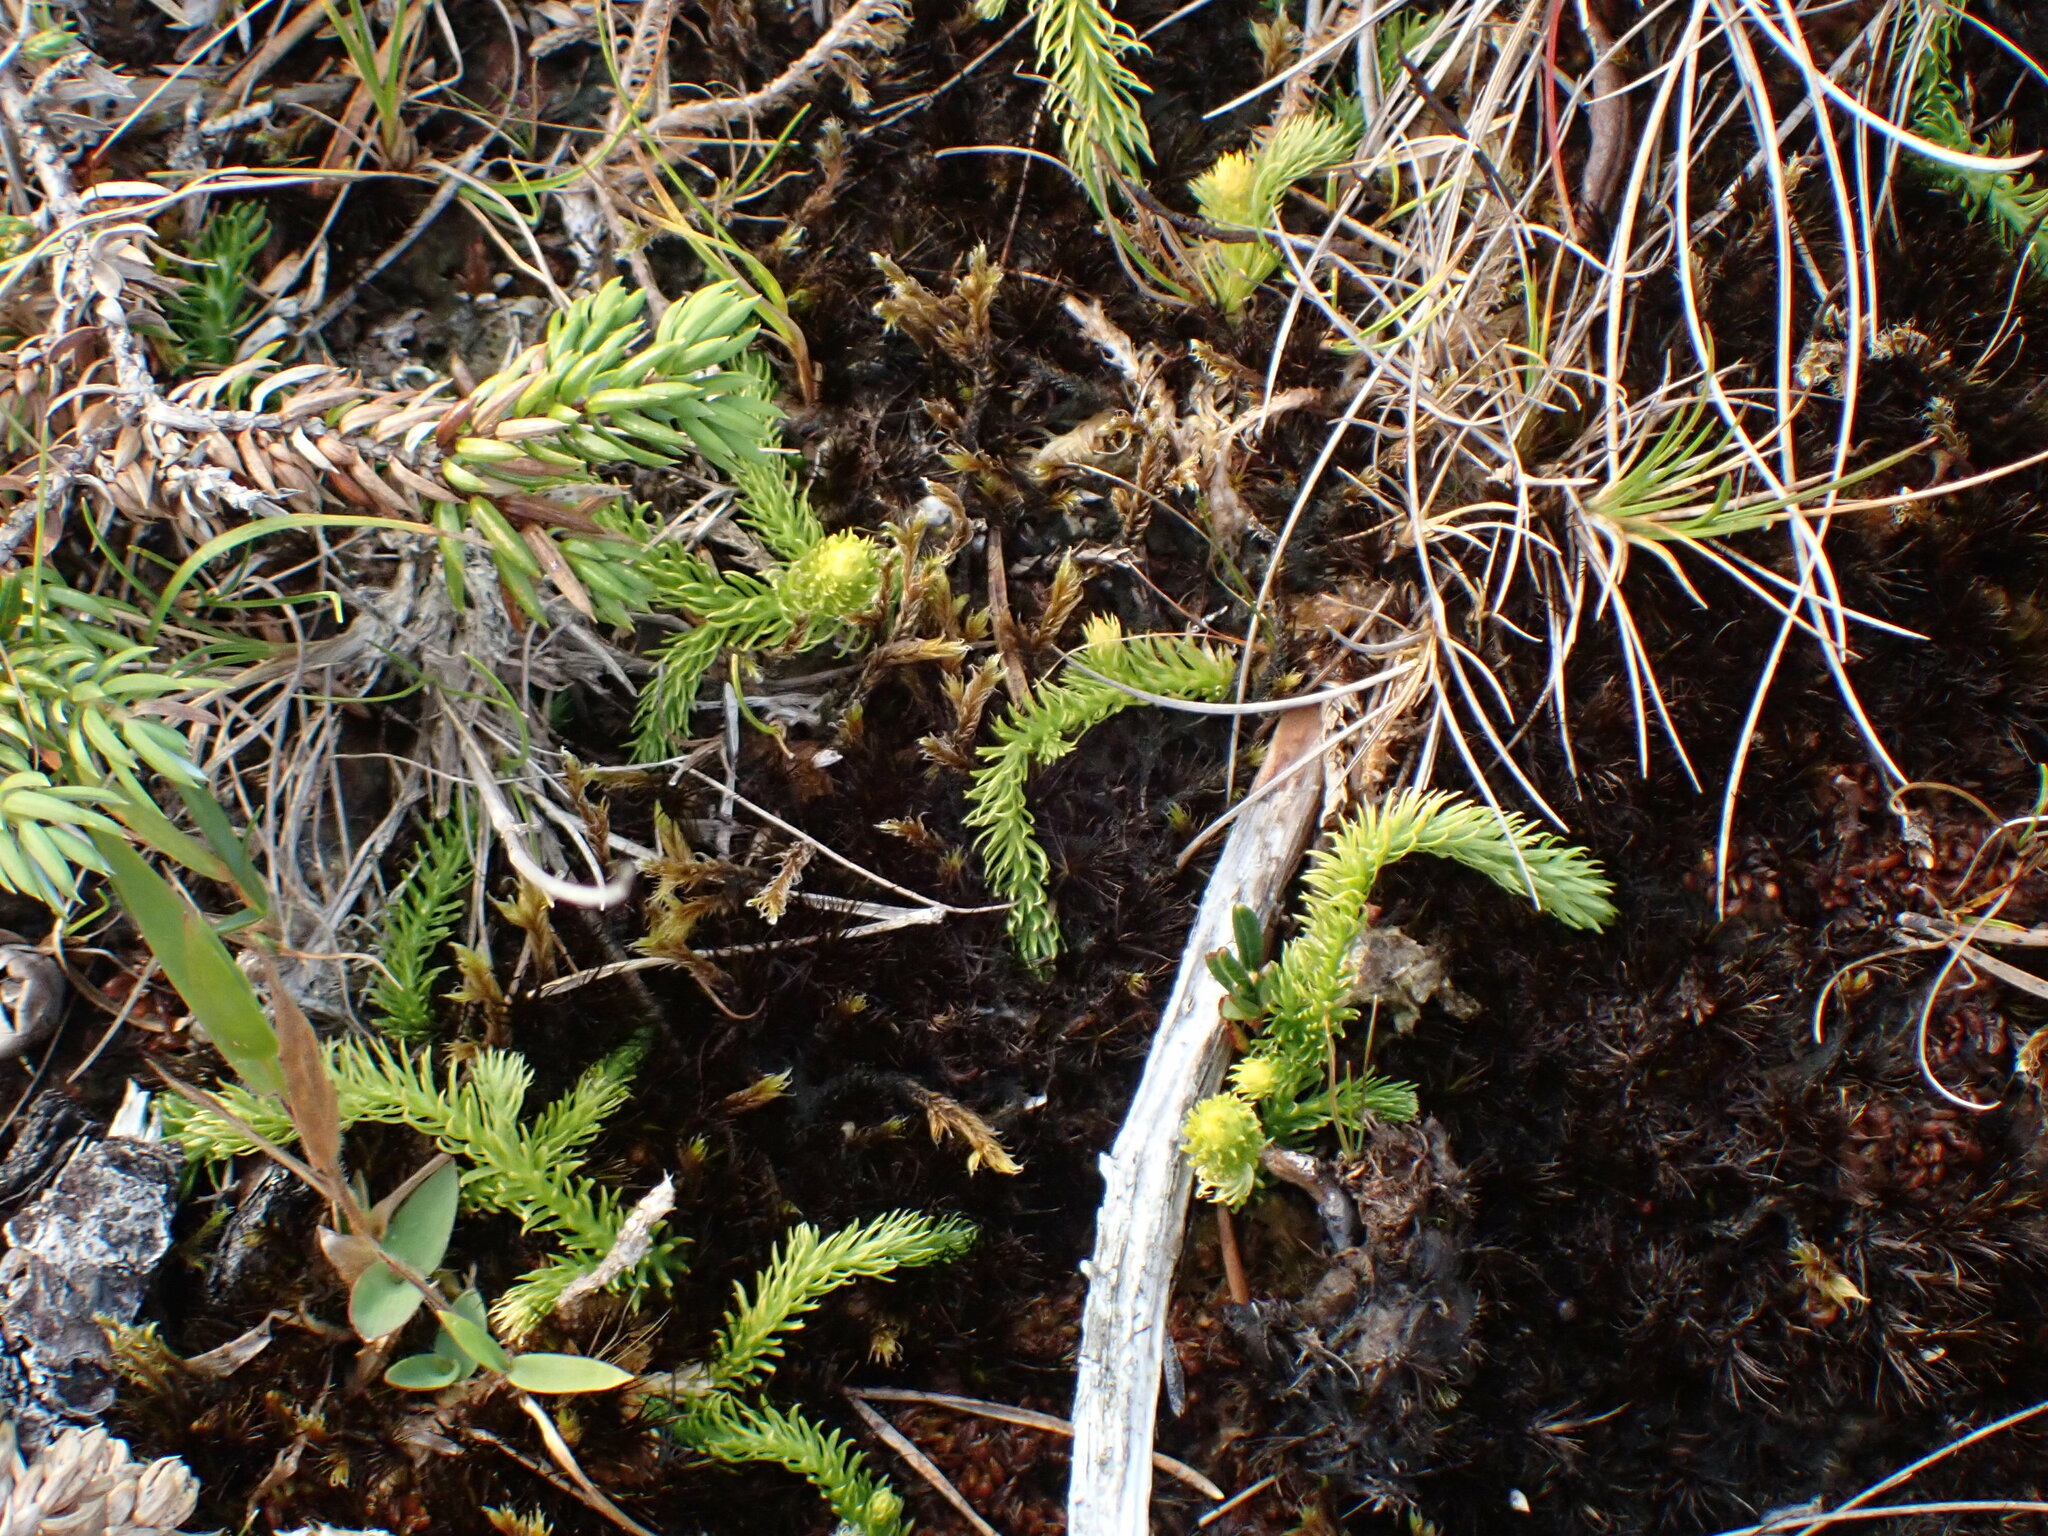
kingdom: Plantae
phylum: Tracheophyta
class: Lycopodiopsida
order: Lycopodiales
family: Lycopodiaceae
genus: Lycopodiella
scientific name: Lycopodiella inundata
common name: Marsh clubmoss
